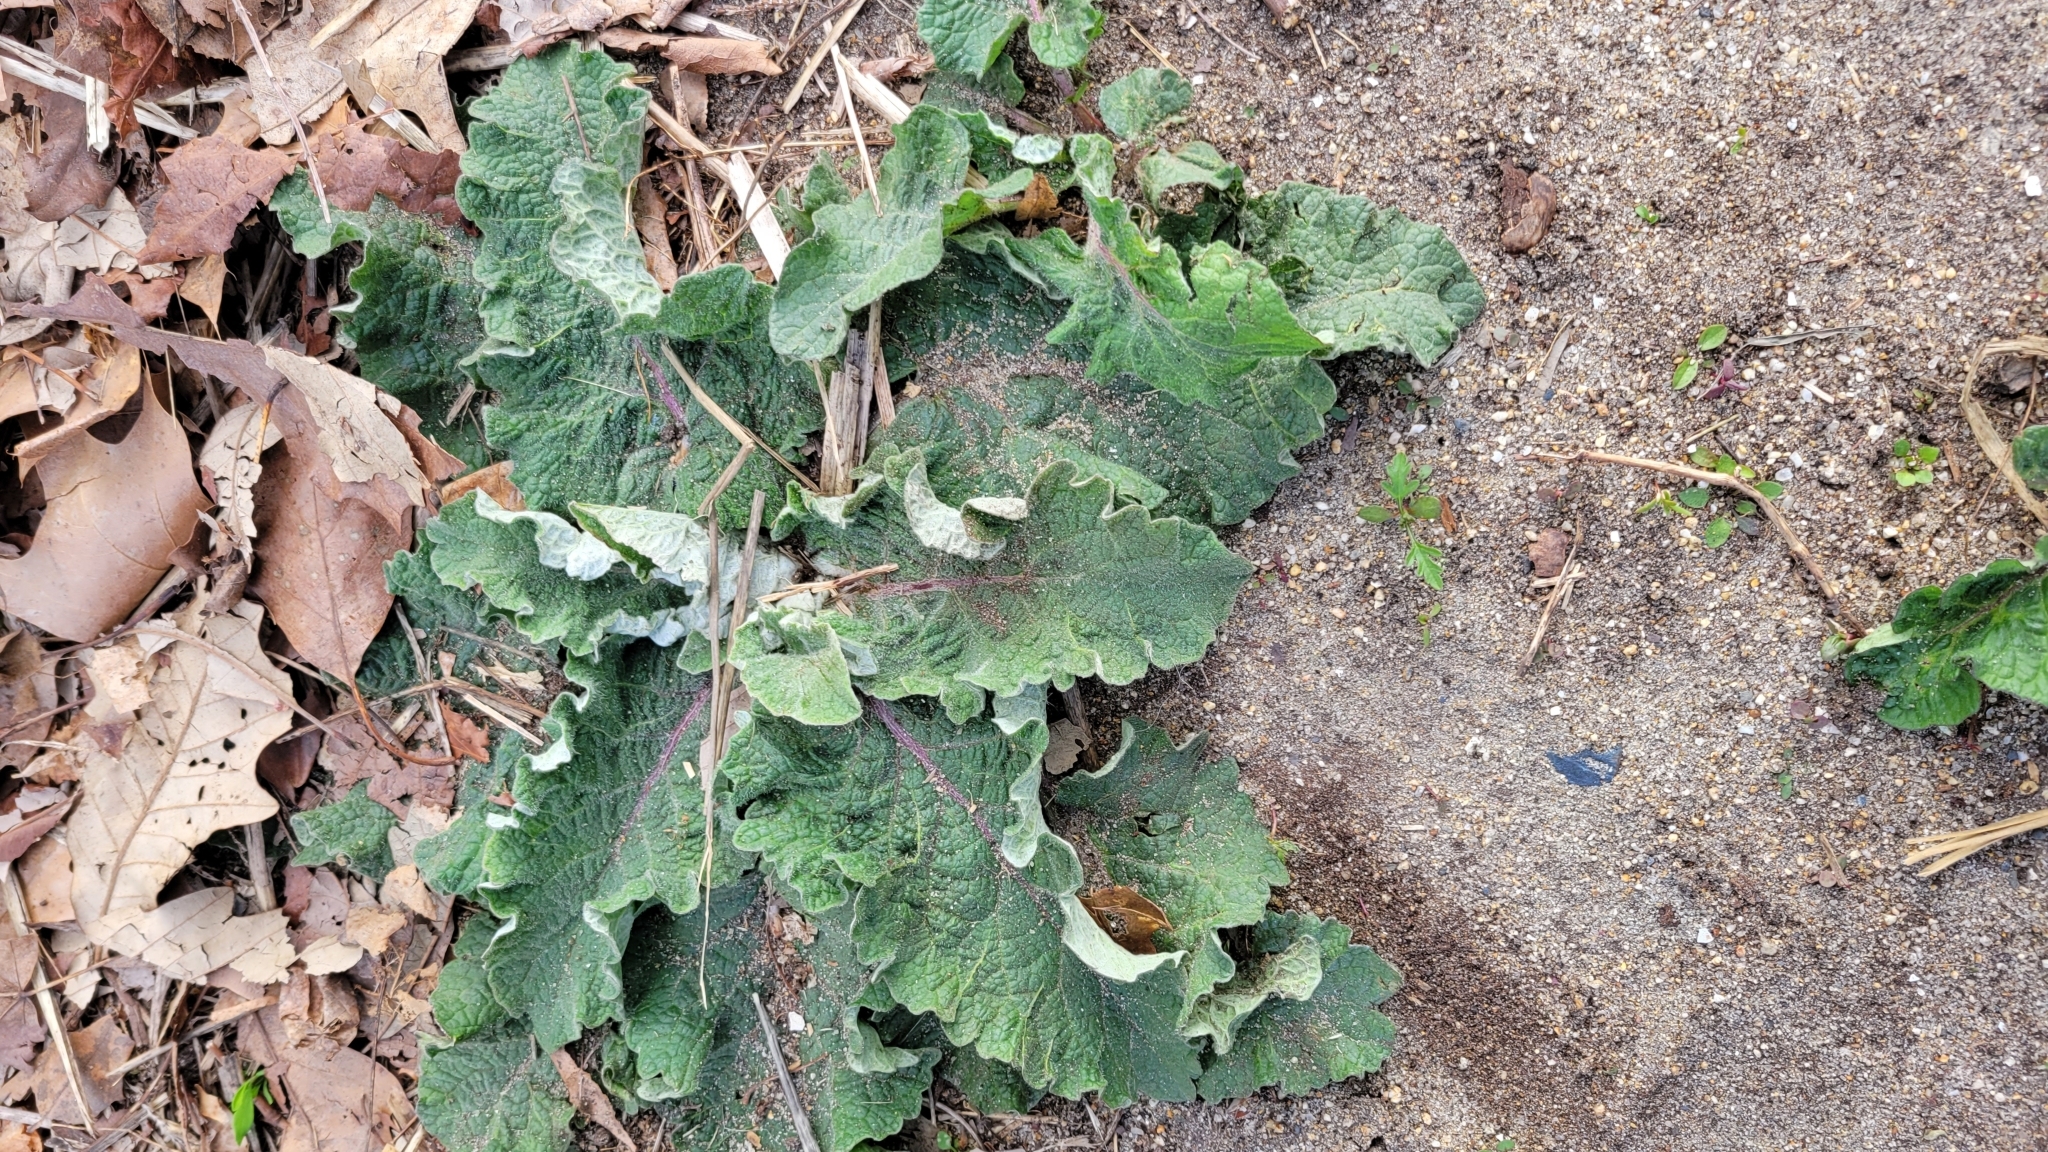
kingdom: Plantae
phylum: Tracheophyta
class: Magnoliopsida
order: Asterales
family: Asteraceae
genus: Arctium
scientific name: Arctium minus
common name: Lesser burdock
